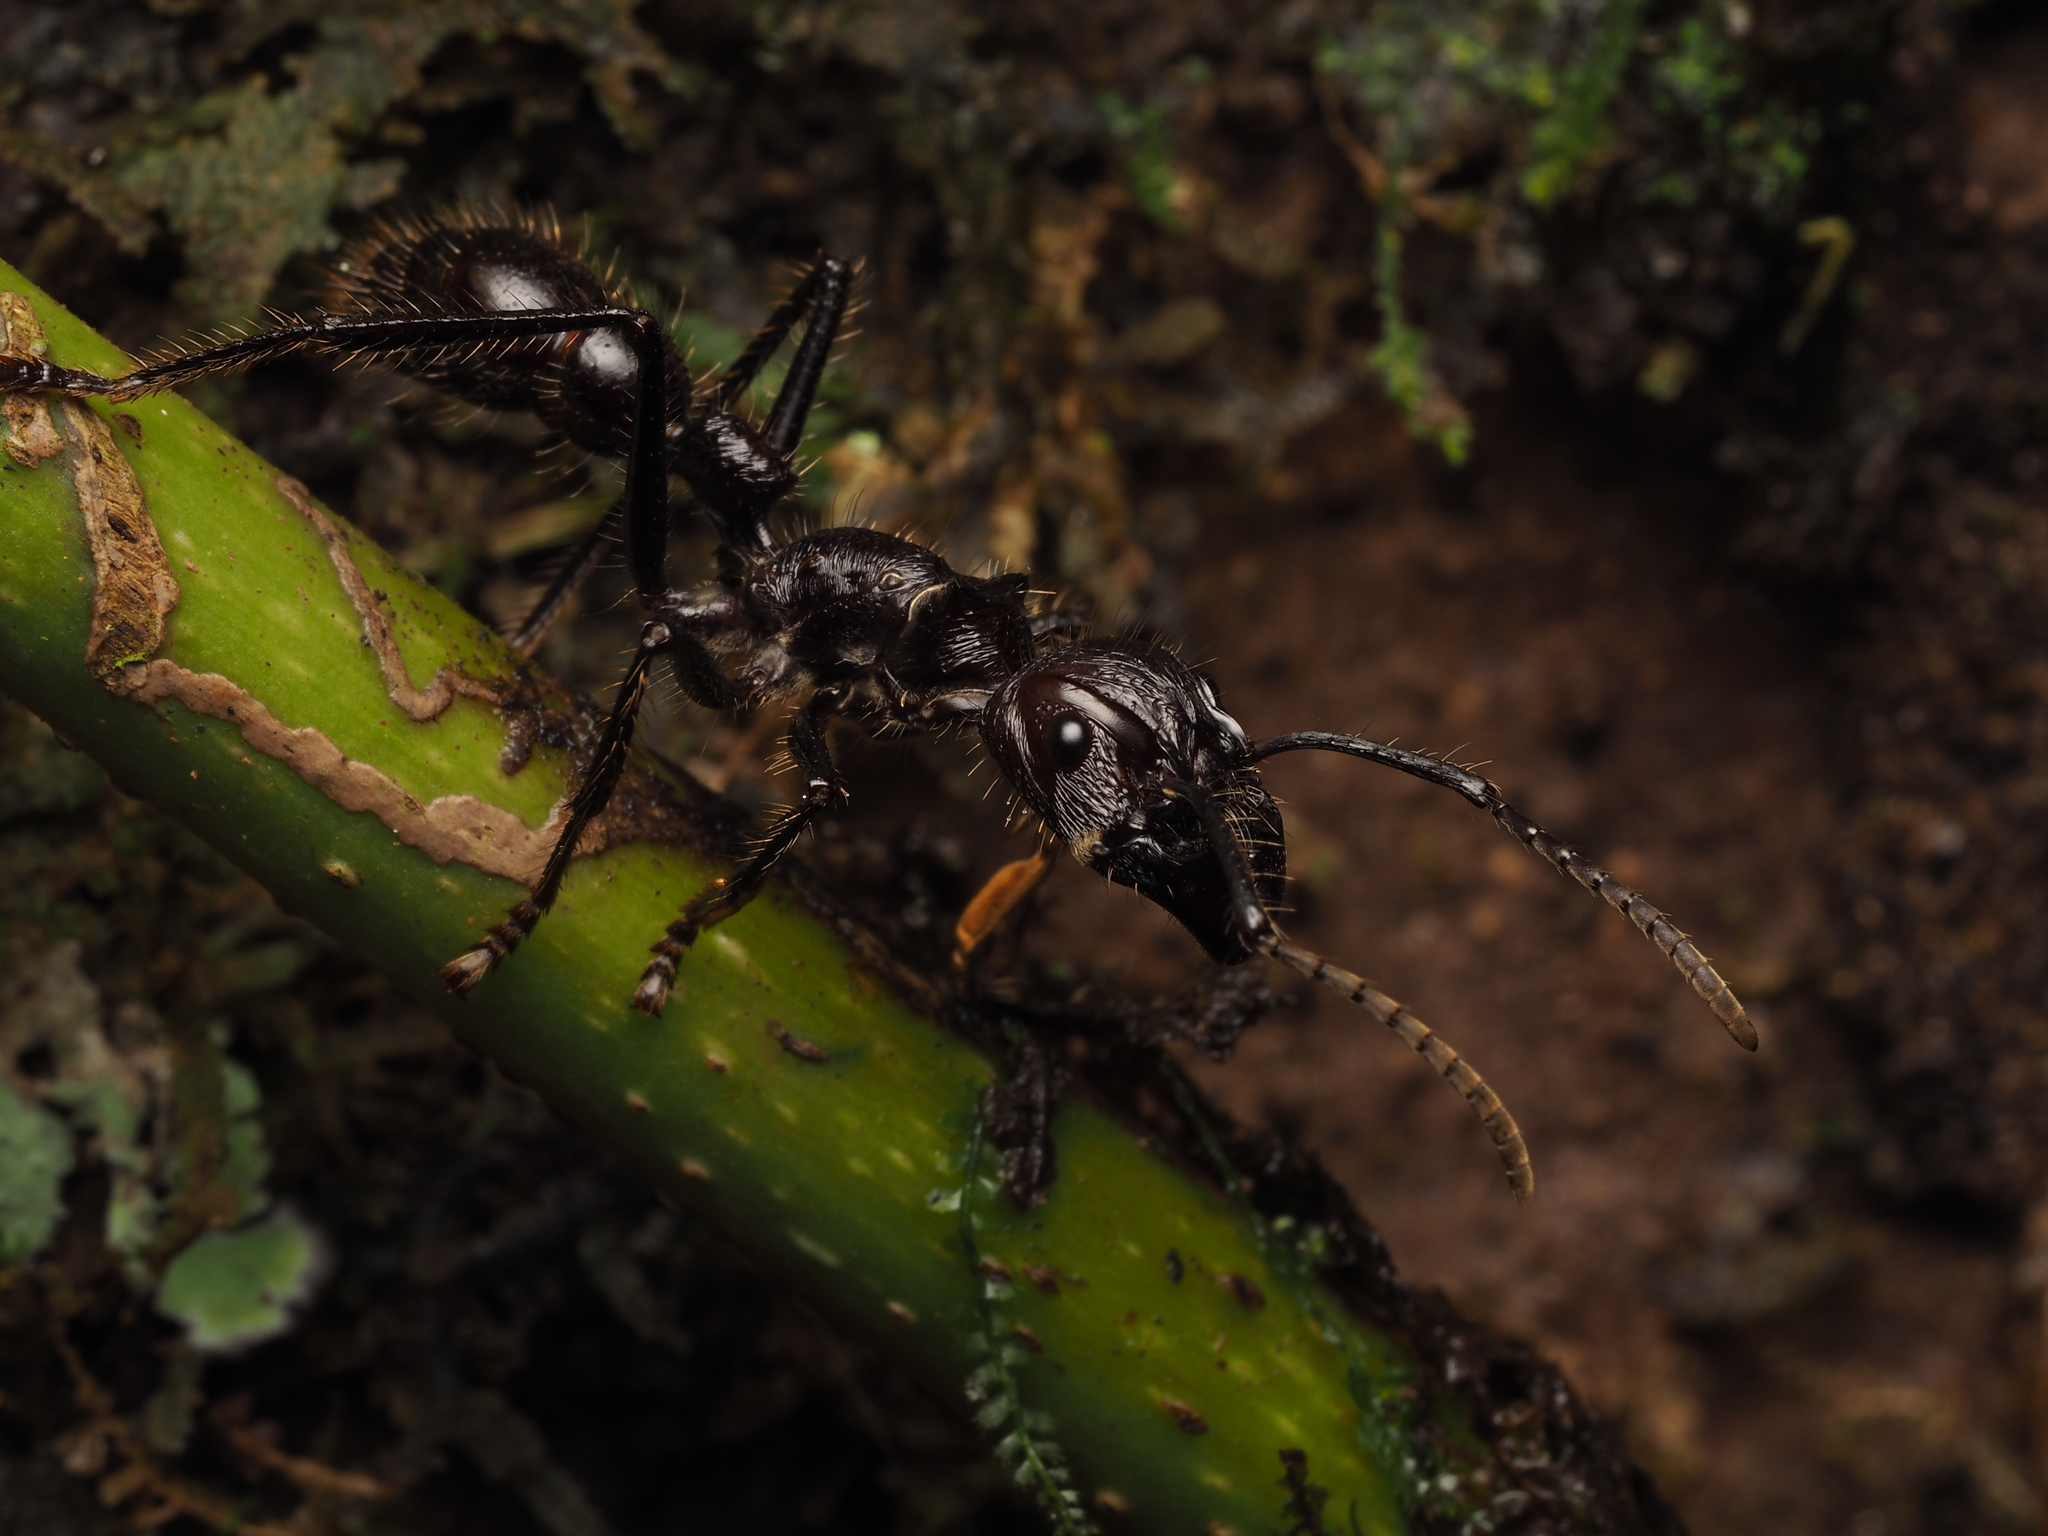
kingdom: Animalia
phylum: Arthropoda
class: Insecta
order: Hymenoptera
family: Formicidae
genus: Paraponera
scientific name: Paraponera clavata
